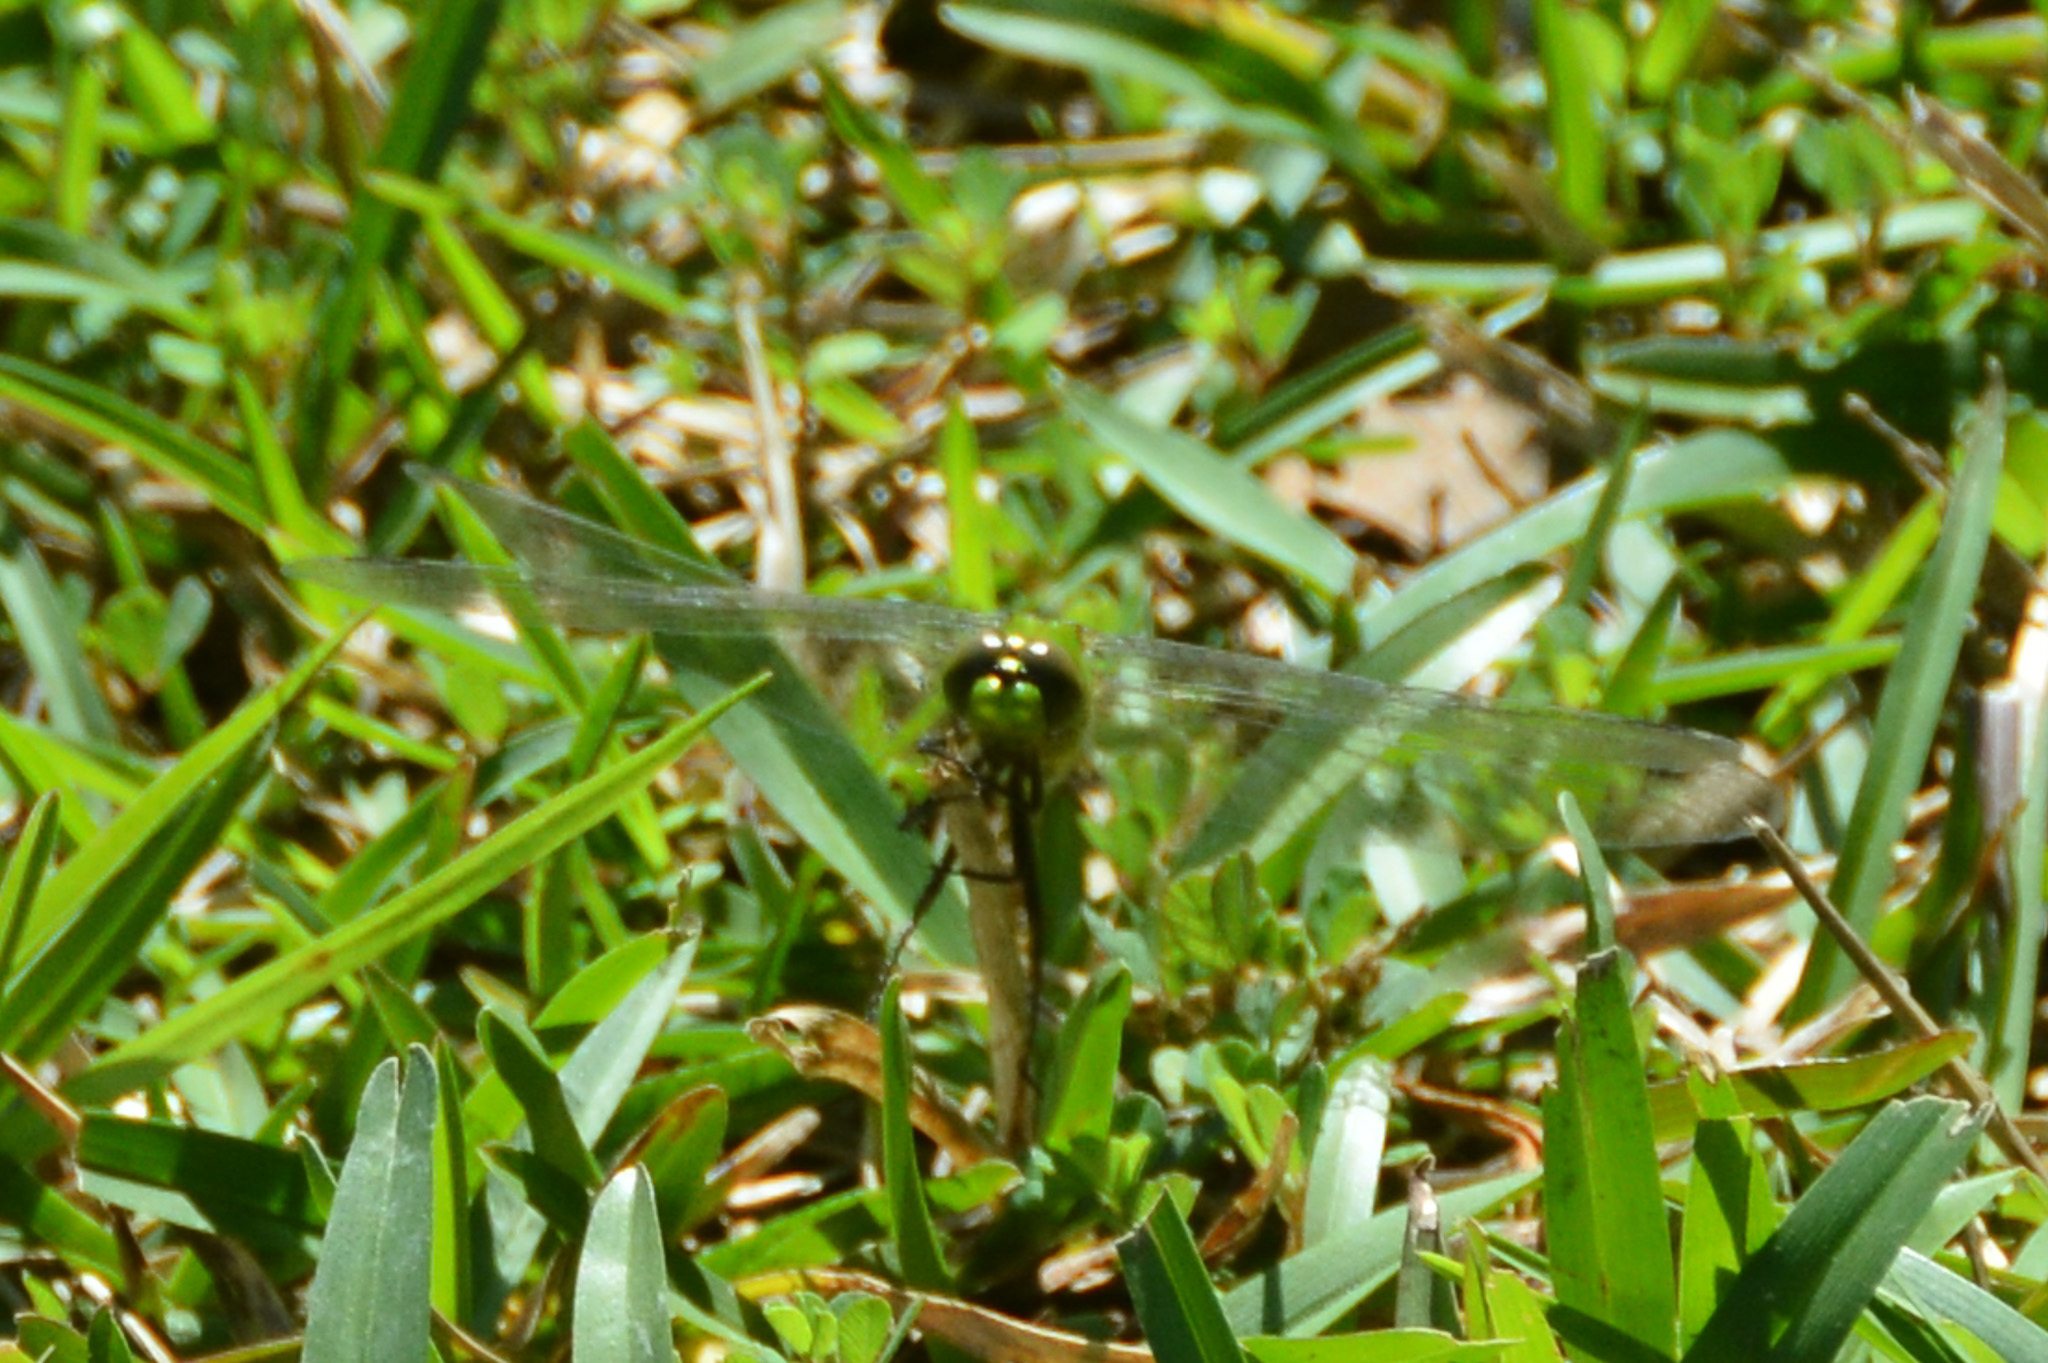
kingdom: Animalia
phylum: Arthropoda
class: Insecta
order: Odonata
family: Libellulidae
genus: Erythemis
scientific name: Erythemis simplicicollis
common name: Eastern pondhawk
